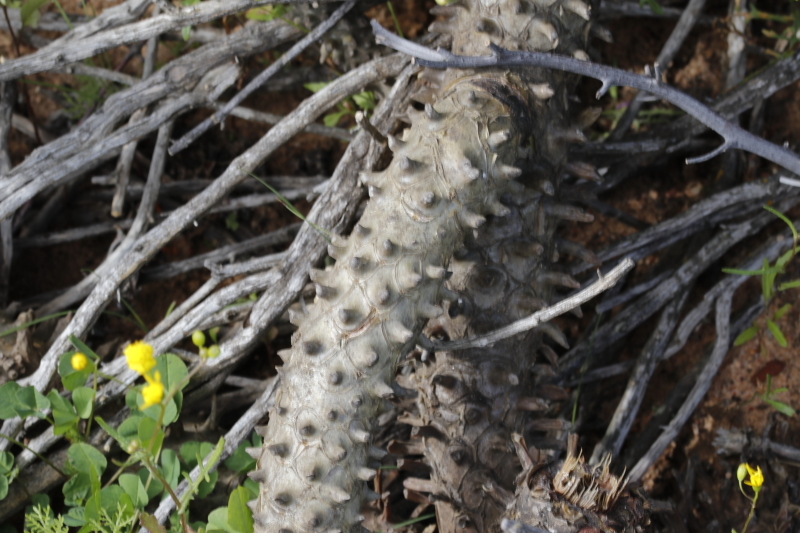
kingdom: Plantae
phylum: Tracheophyta
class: Magnoliopsida
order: Saxifragales
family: Crassulaceae
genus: Tylecodon
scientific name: Tylecodon wallichii
